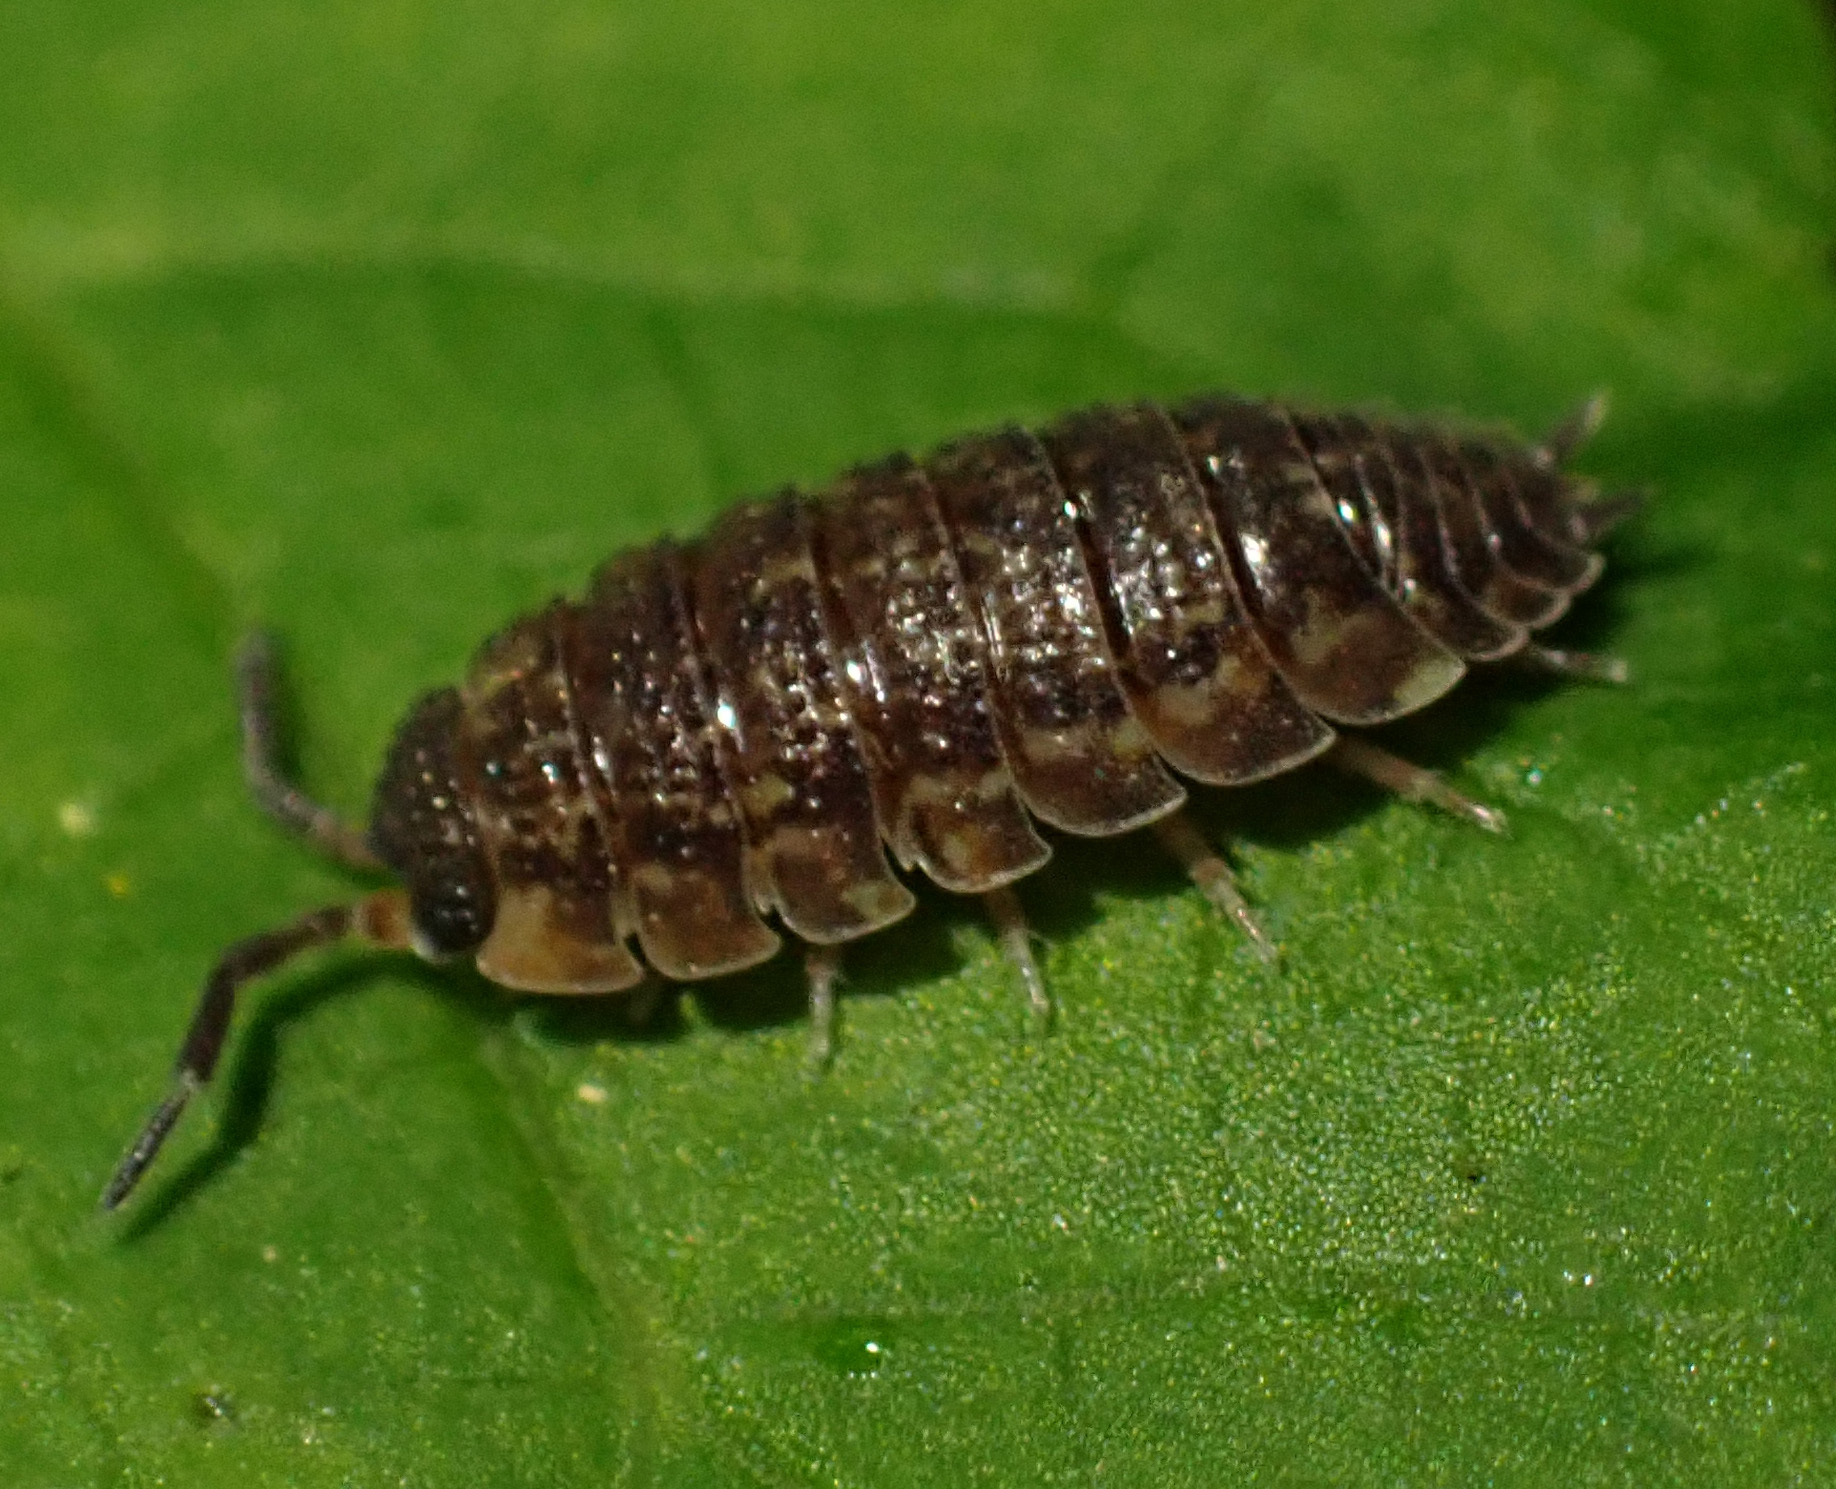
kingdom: Animalia
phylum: Arthropoda
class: Malacostraca
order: Isopoda
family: Porcellionidae
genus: Porcellio
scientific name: Porcellio scaber
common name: Common rough woodlouse
